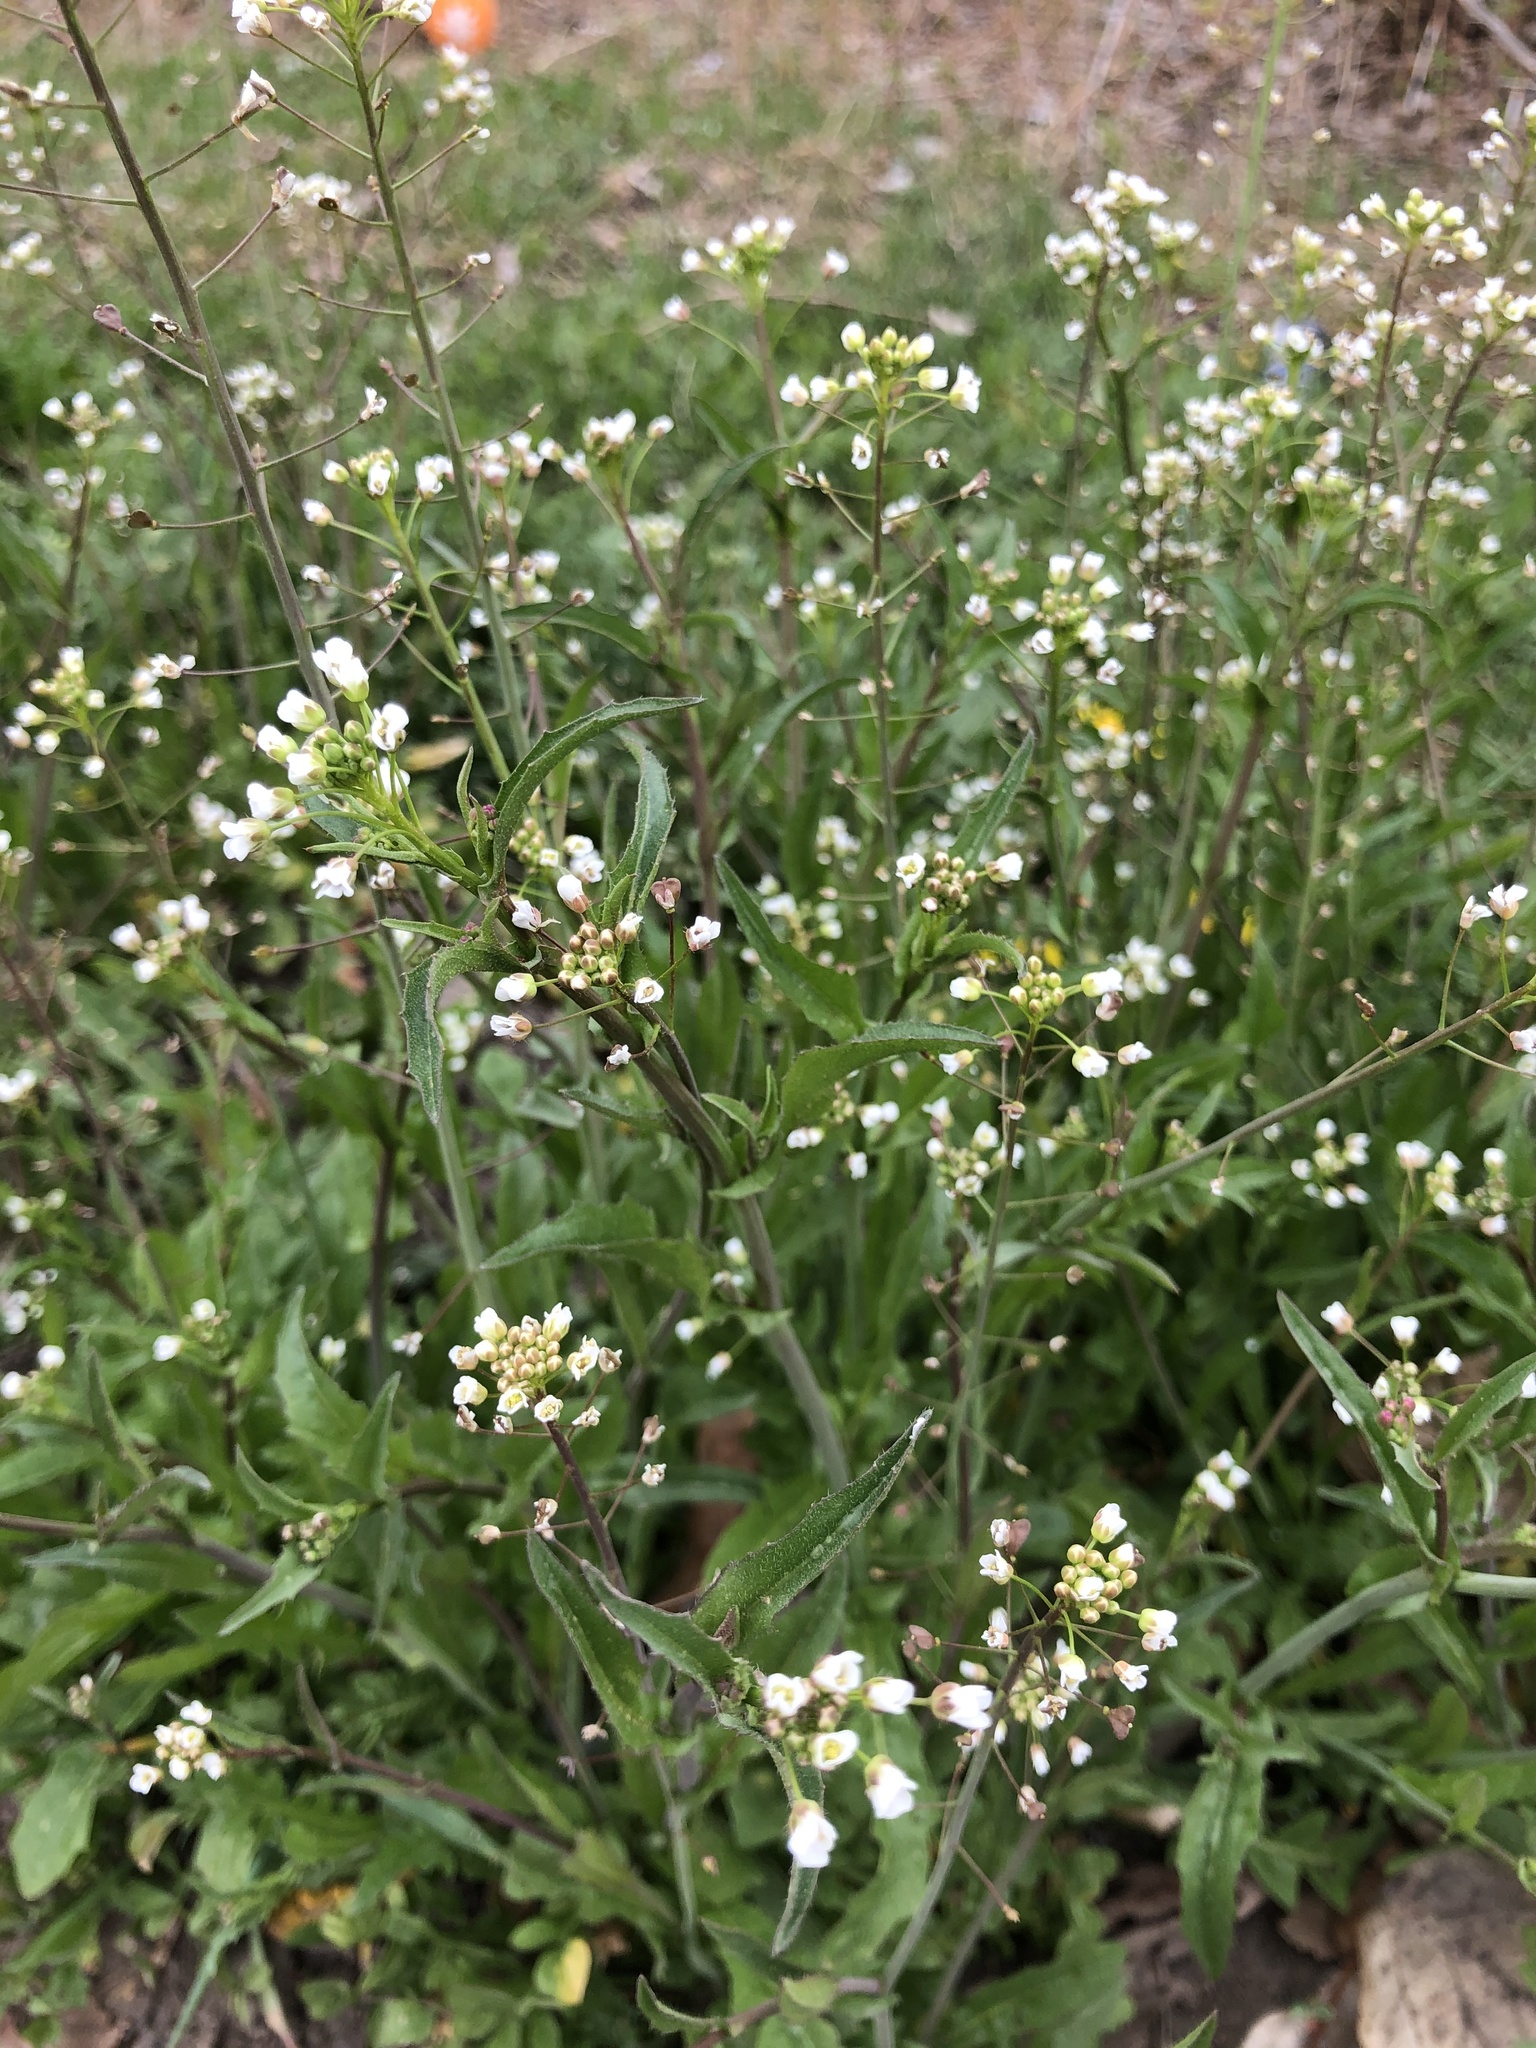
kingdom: Plantae
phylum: Tracheophyta
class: Magnoliopsida
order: Brassicales
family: Brassicaceae
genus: Capsella
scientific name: Capsella bursa-pastoris
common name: Shepherd's purse
